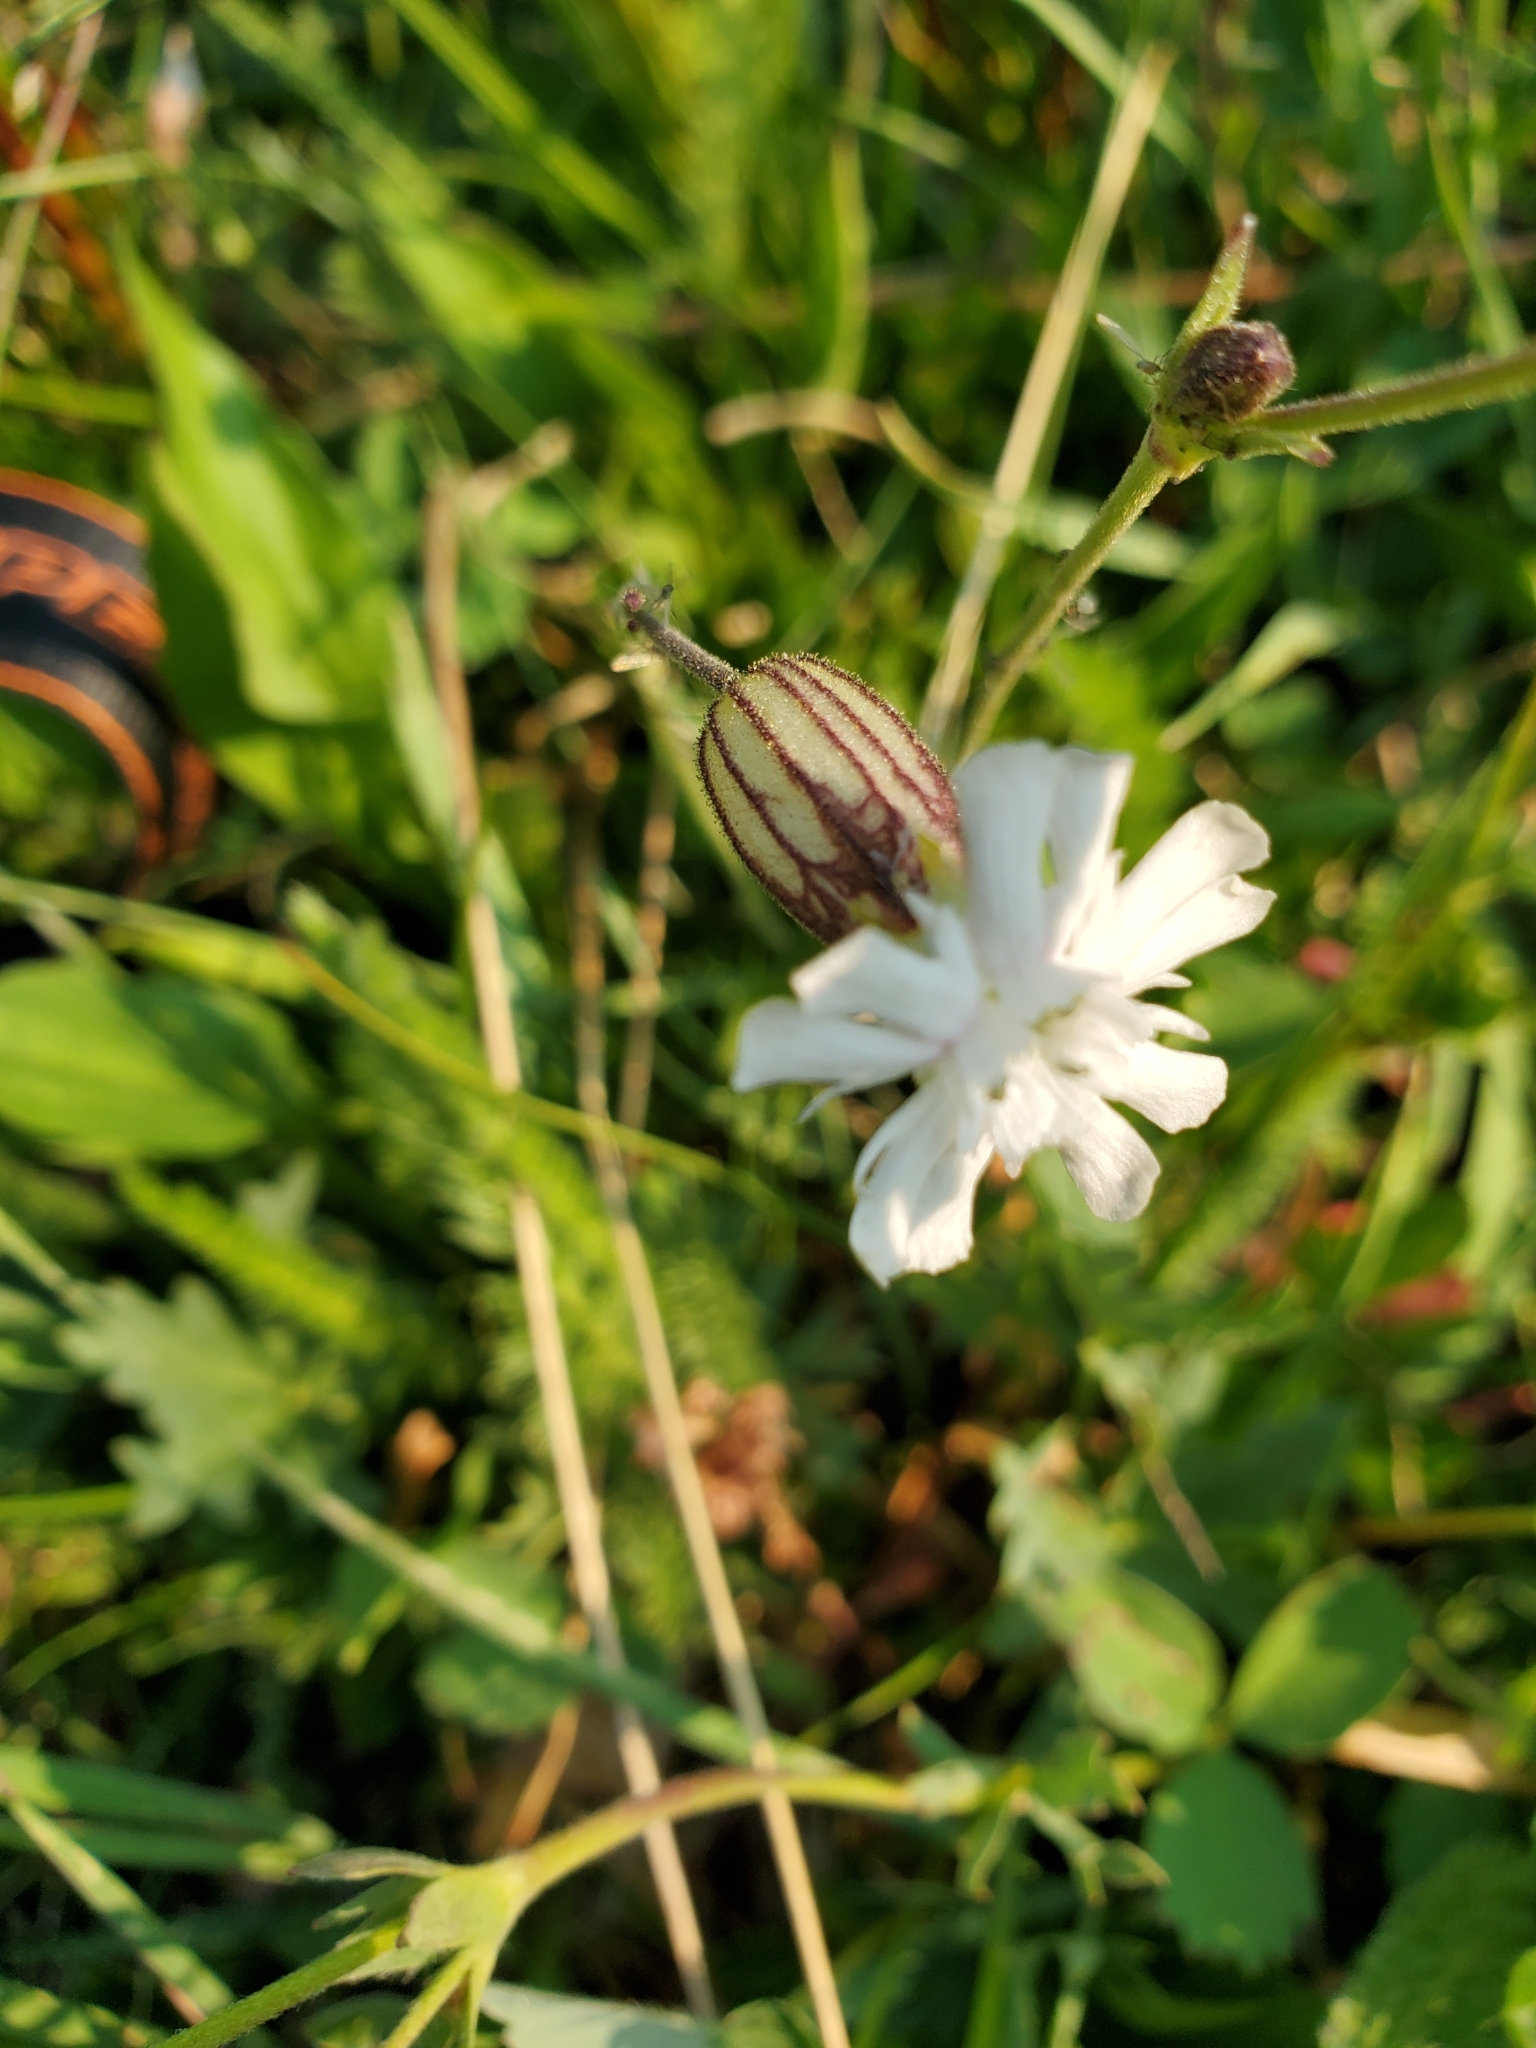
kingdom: Plantae
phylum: Tracheophyta
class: Magnoliopsida
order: Caryophyllales
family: Caryophyllaceae
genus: Silene
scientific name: Silene parryi
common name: Parry's campion
